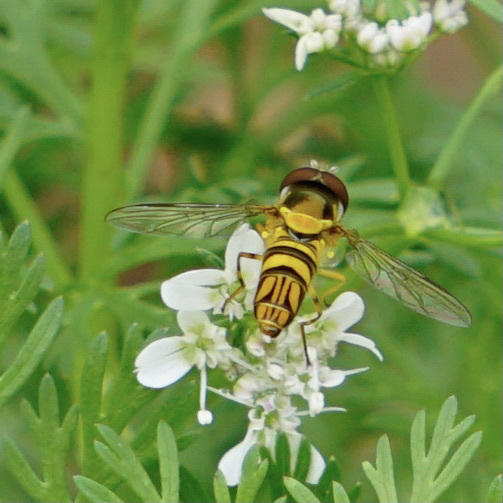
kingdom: Animalia
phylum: Arthropoda
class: Insecta
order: Diptera
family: Syrphidae
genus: Allograpta
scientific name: Allograpta obliqua
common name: Common oblique syrphid
